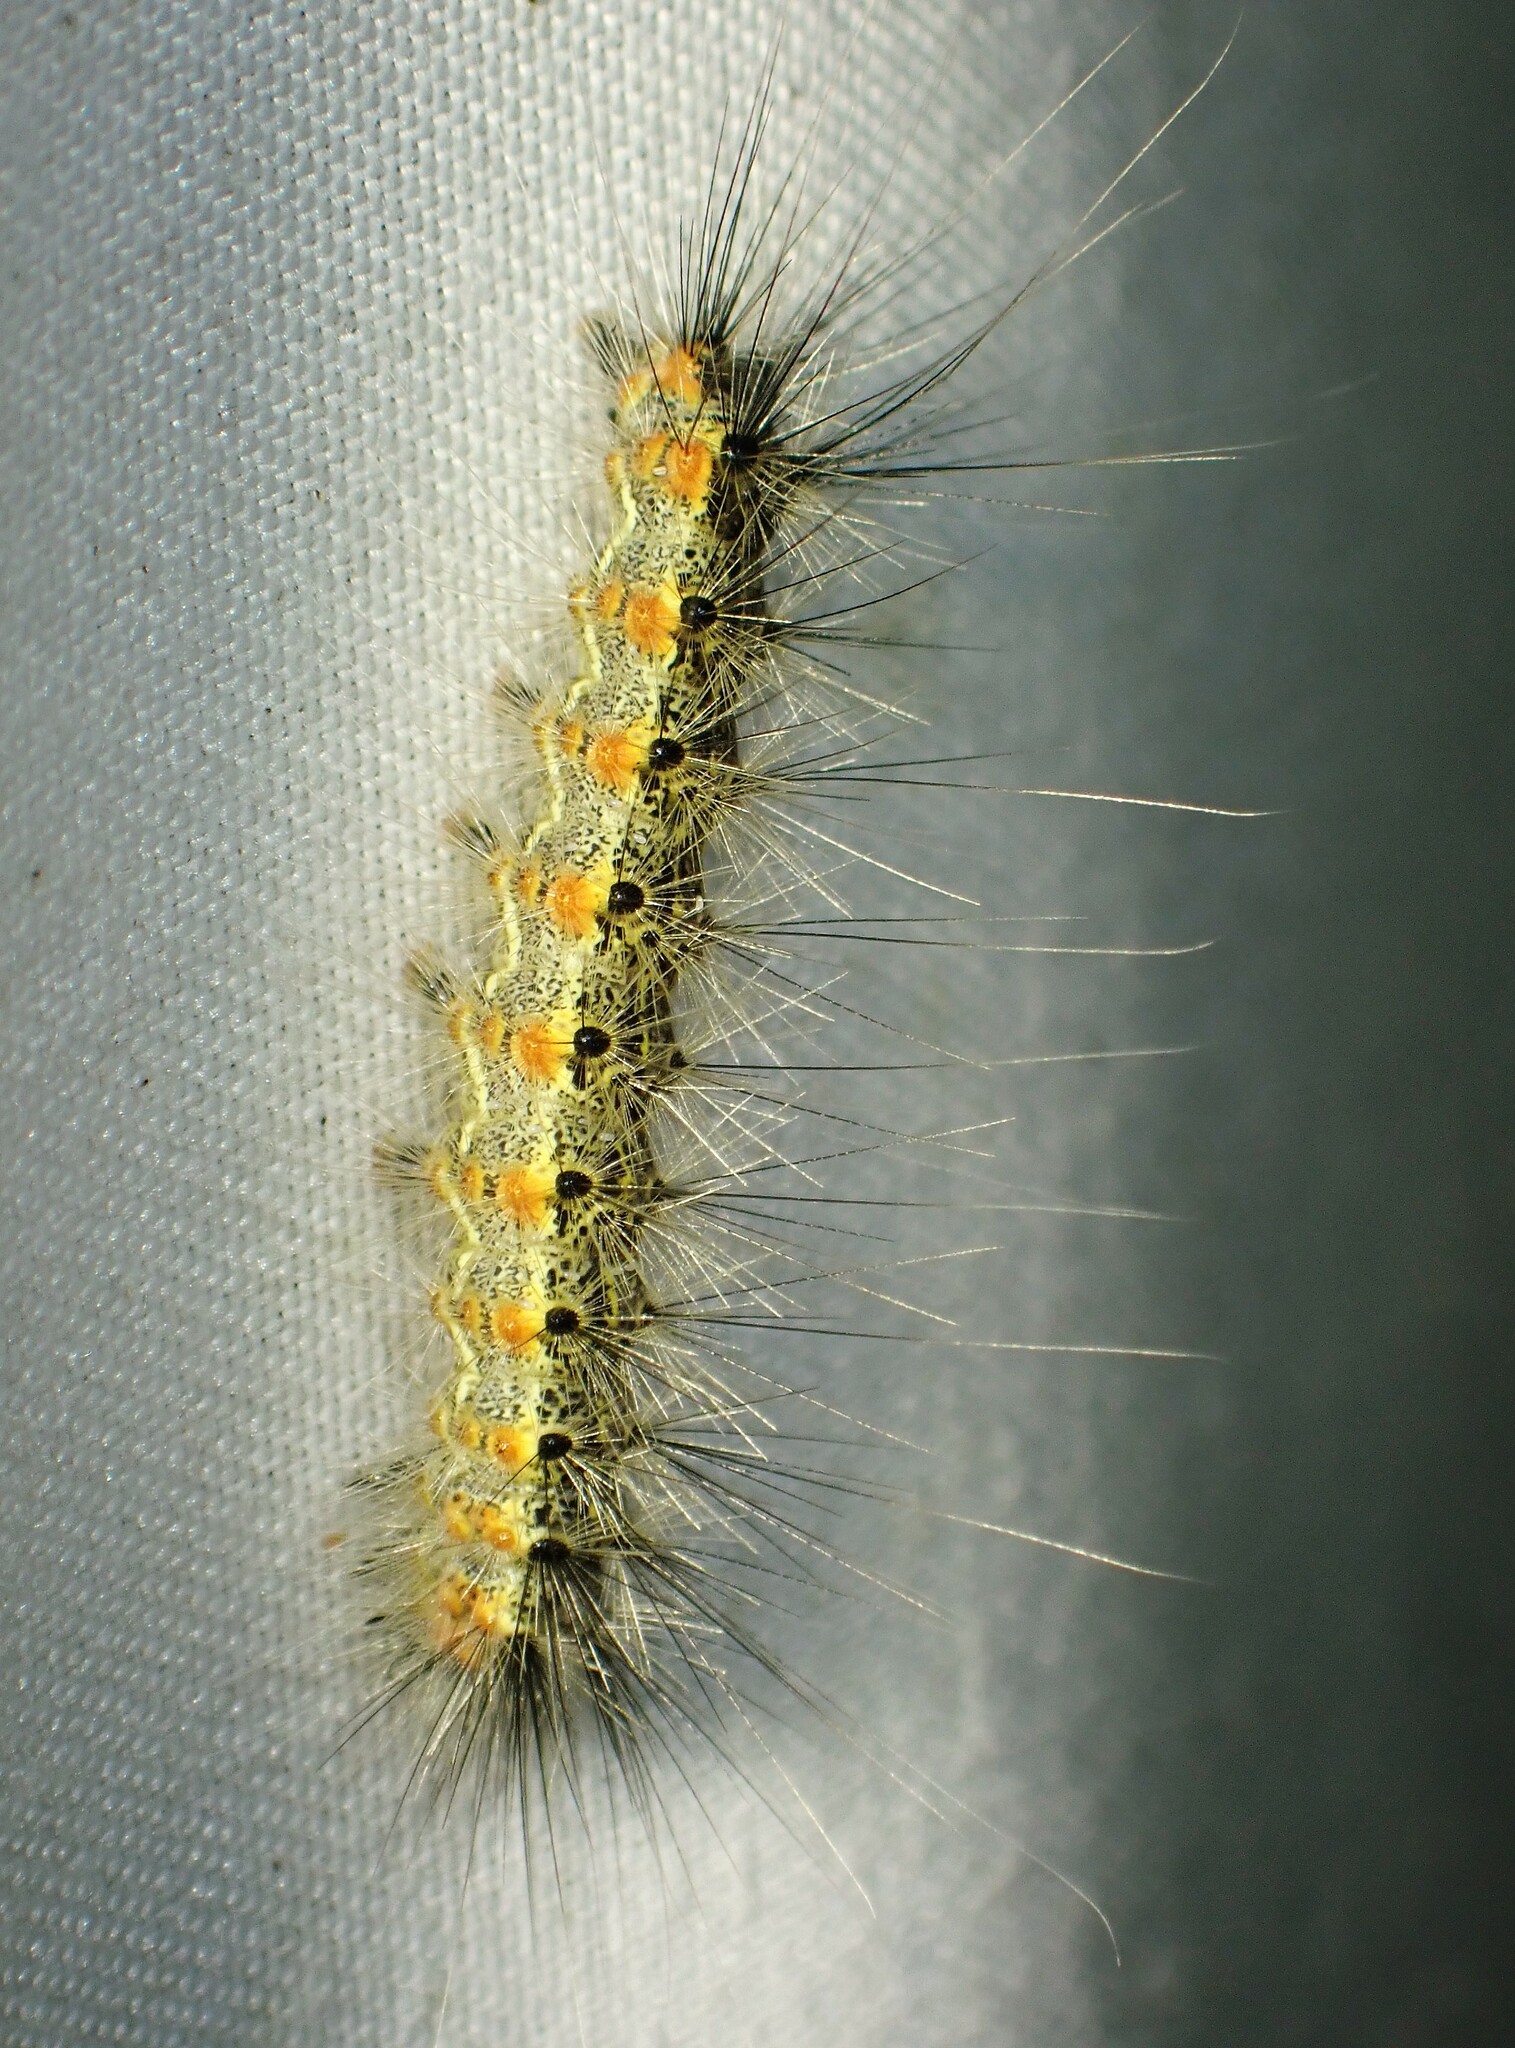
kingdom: Animalia
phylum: Arthropoda
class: Insecta
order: Lepidoptera
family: Erebidae
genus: Hyphantria
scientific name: Hyphantria cunea
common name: American white moth
